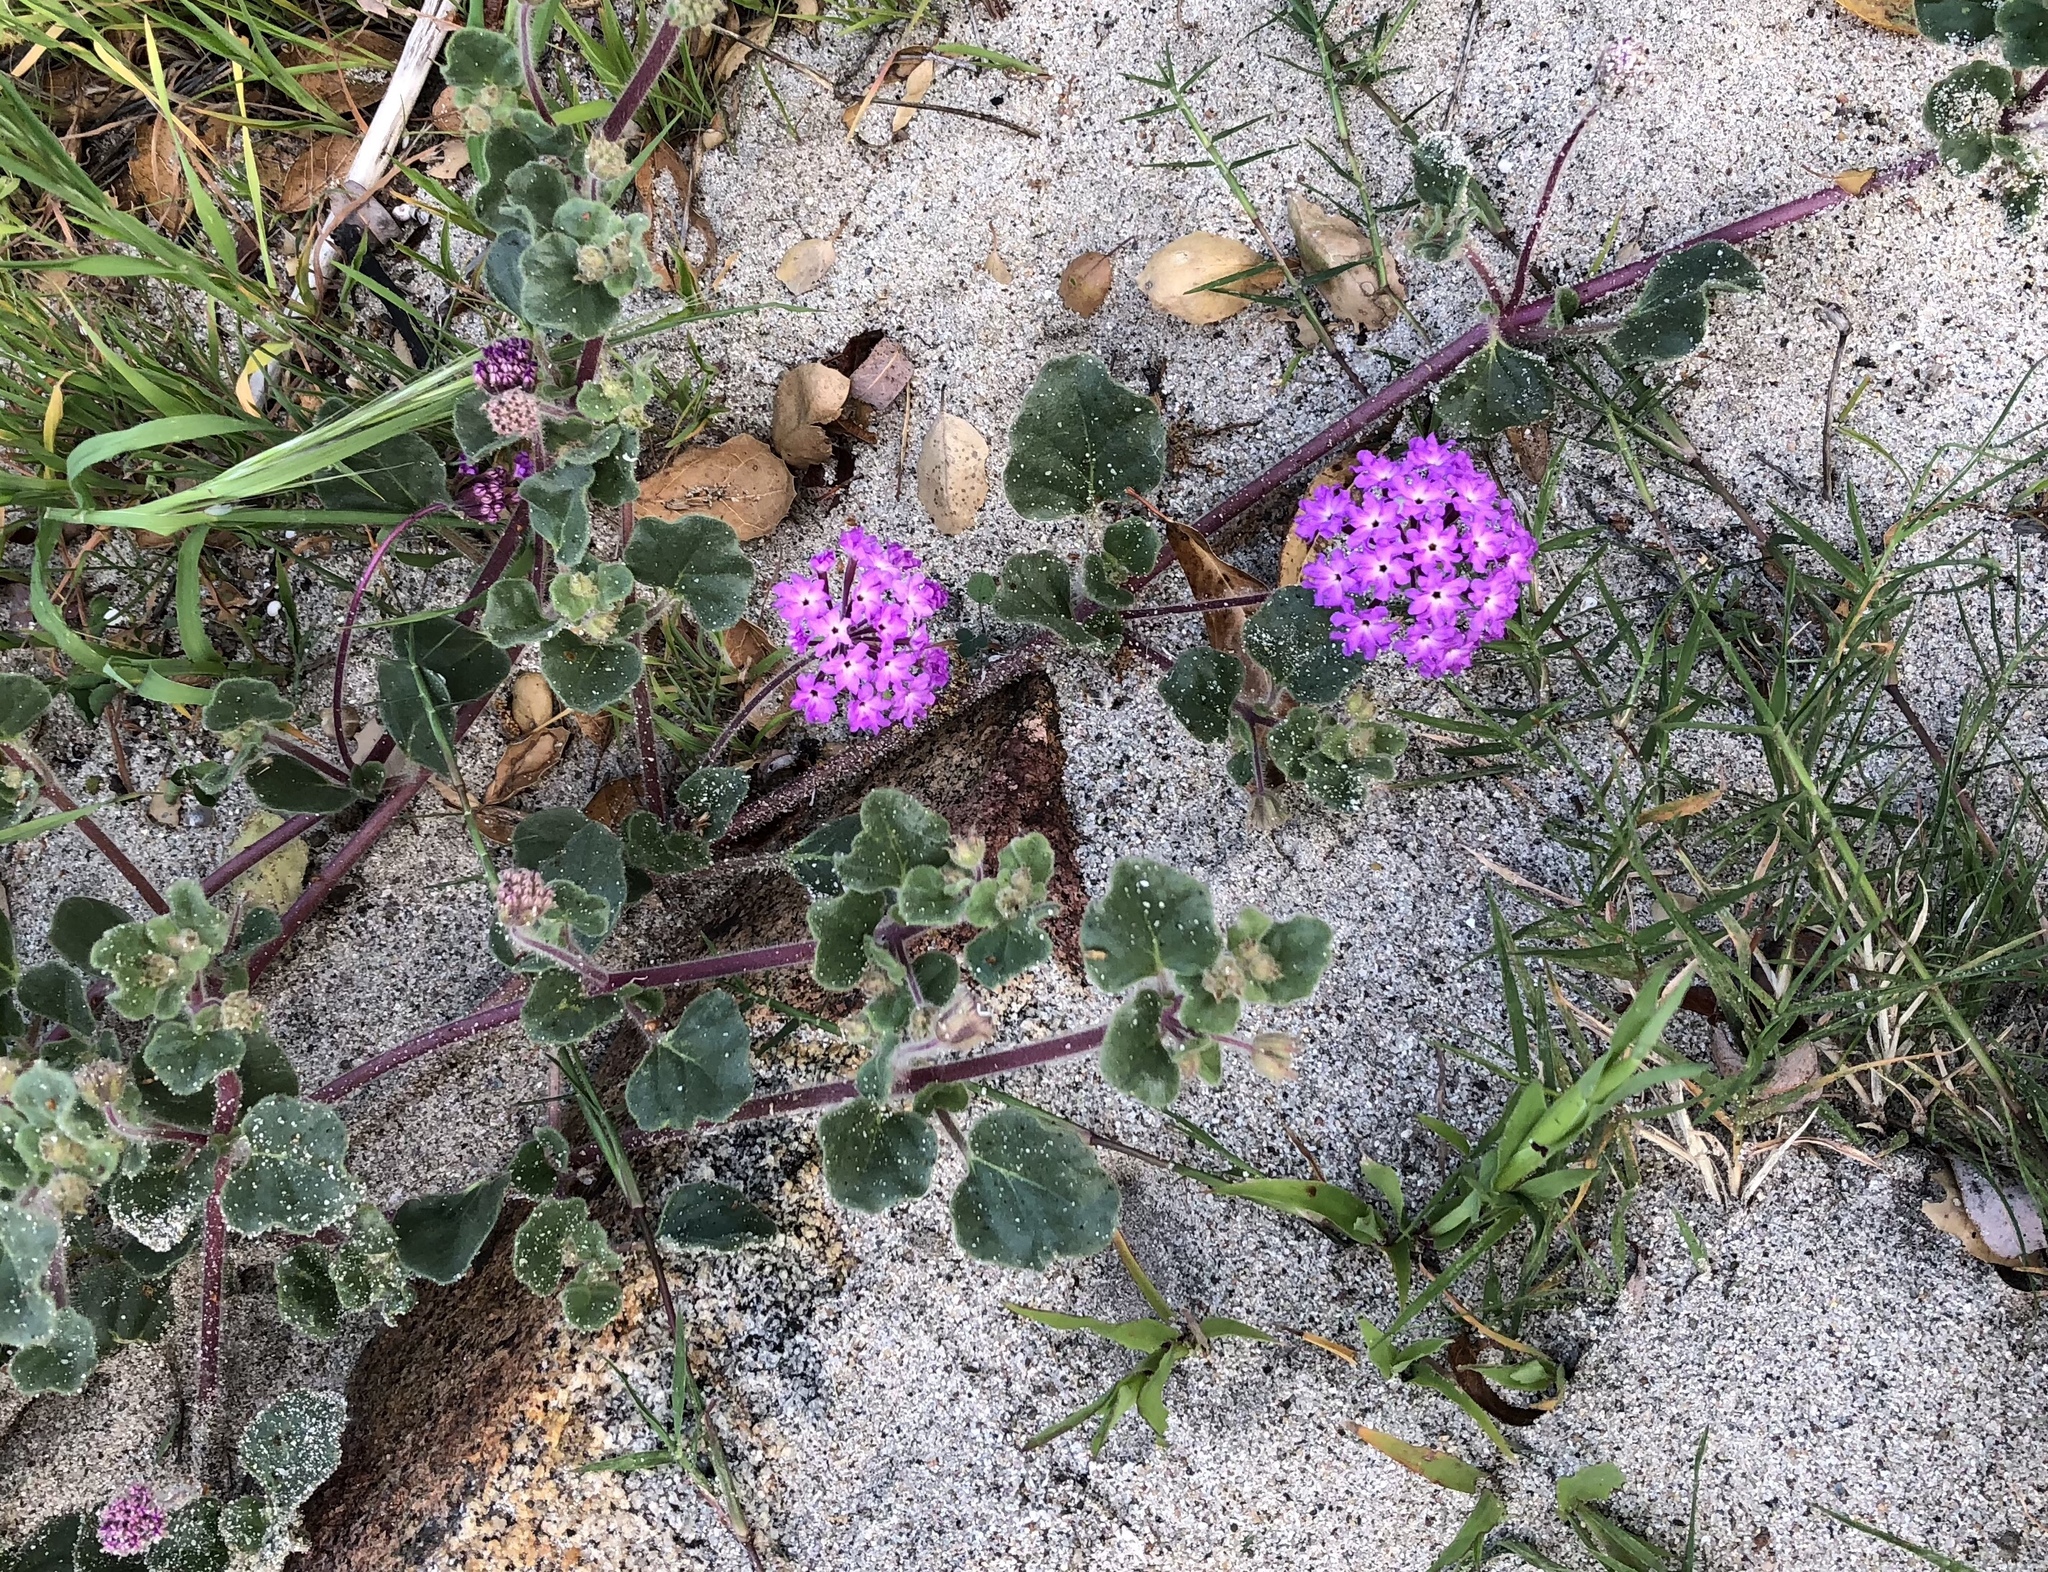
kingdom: Plantae
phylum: Tracheophyta
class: Magnoliopsida
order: Caryophyllales
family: Nyctaginaceae
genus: Abronia
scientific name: Abronia villosa
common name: Desert sand-verbena
